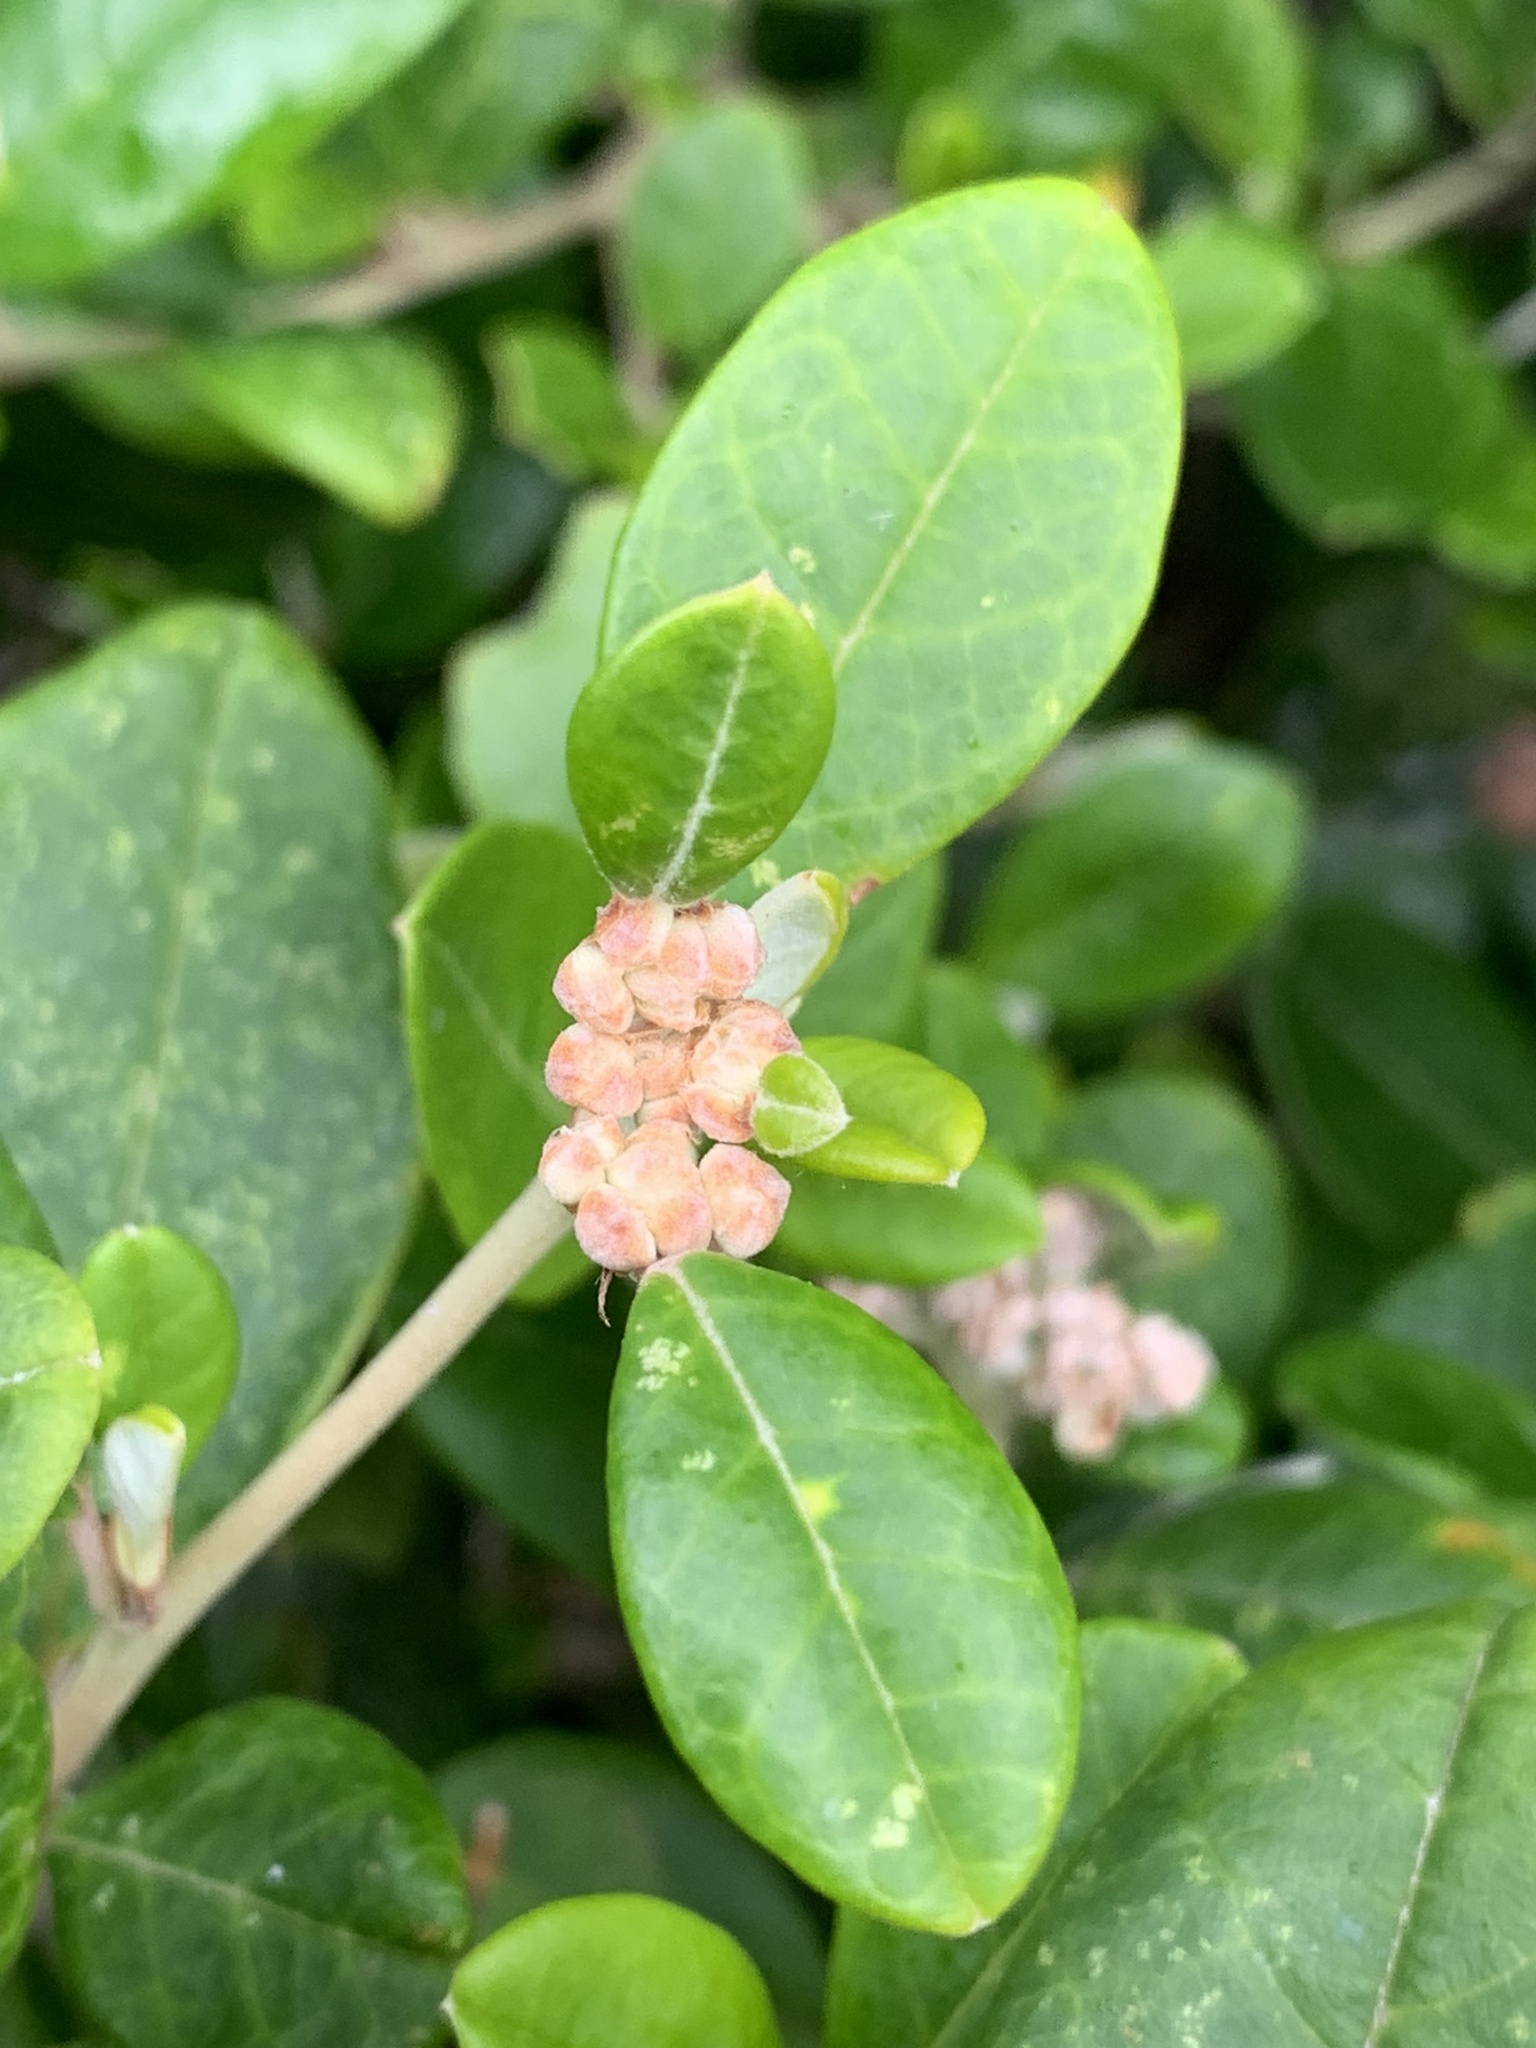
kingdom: Plantae
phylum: Tracheophyta
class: Magnoliopsida
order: Rosales
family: Rhamnaceae
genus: Spyridium
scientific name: Spyridium globulosum
